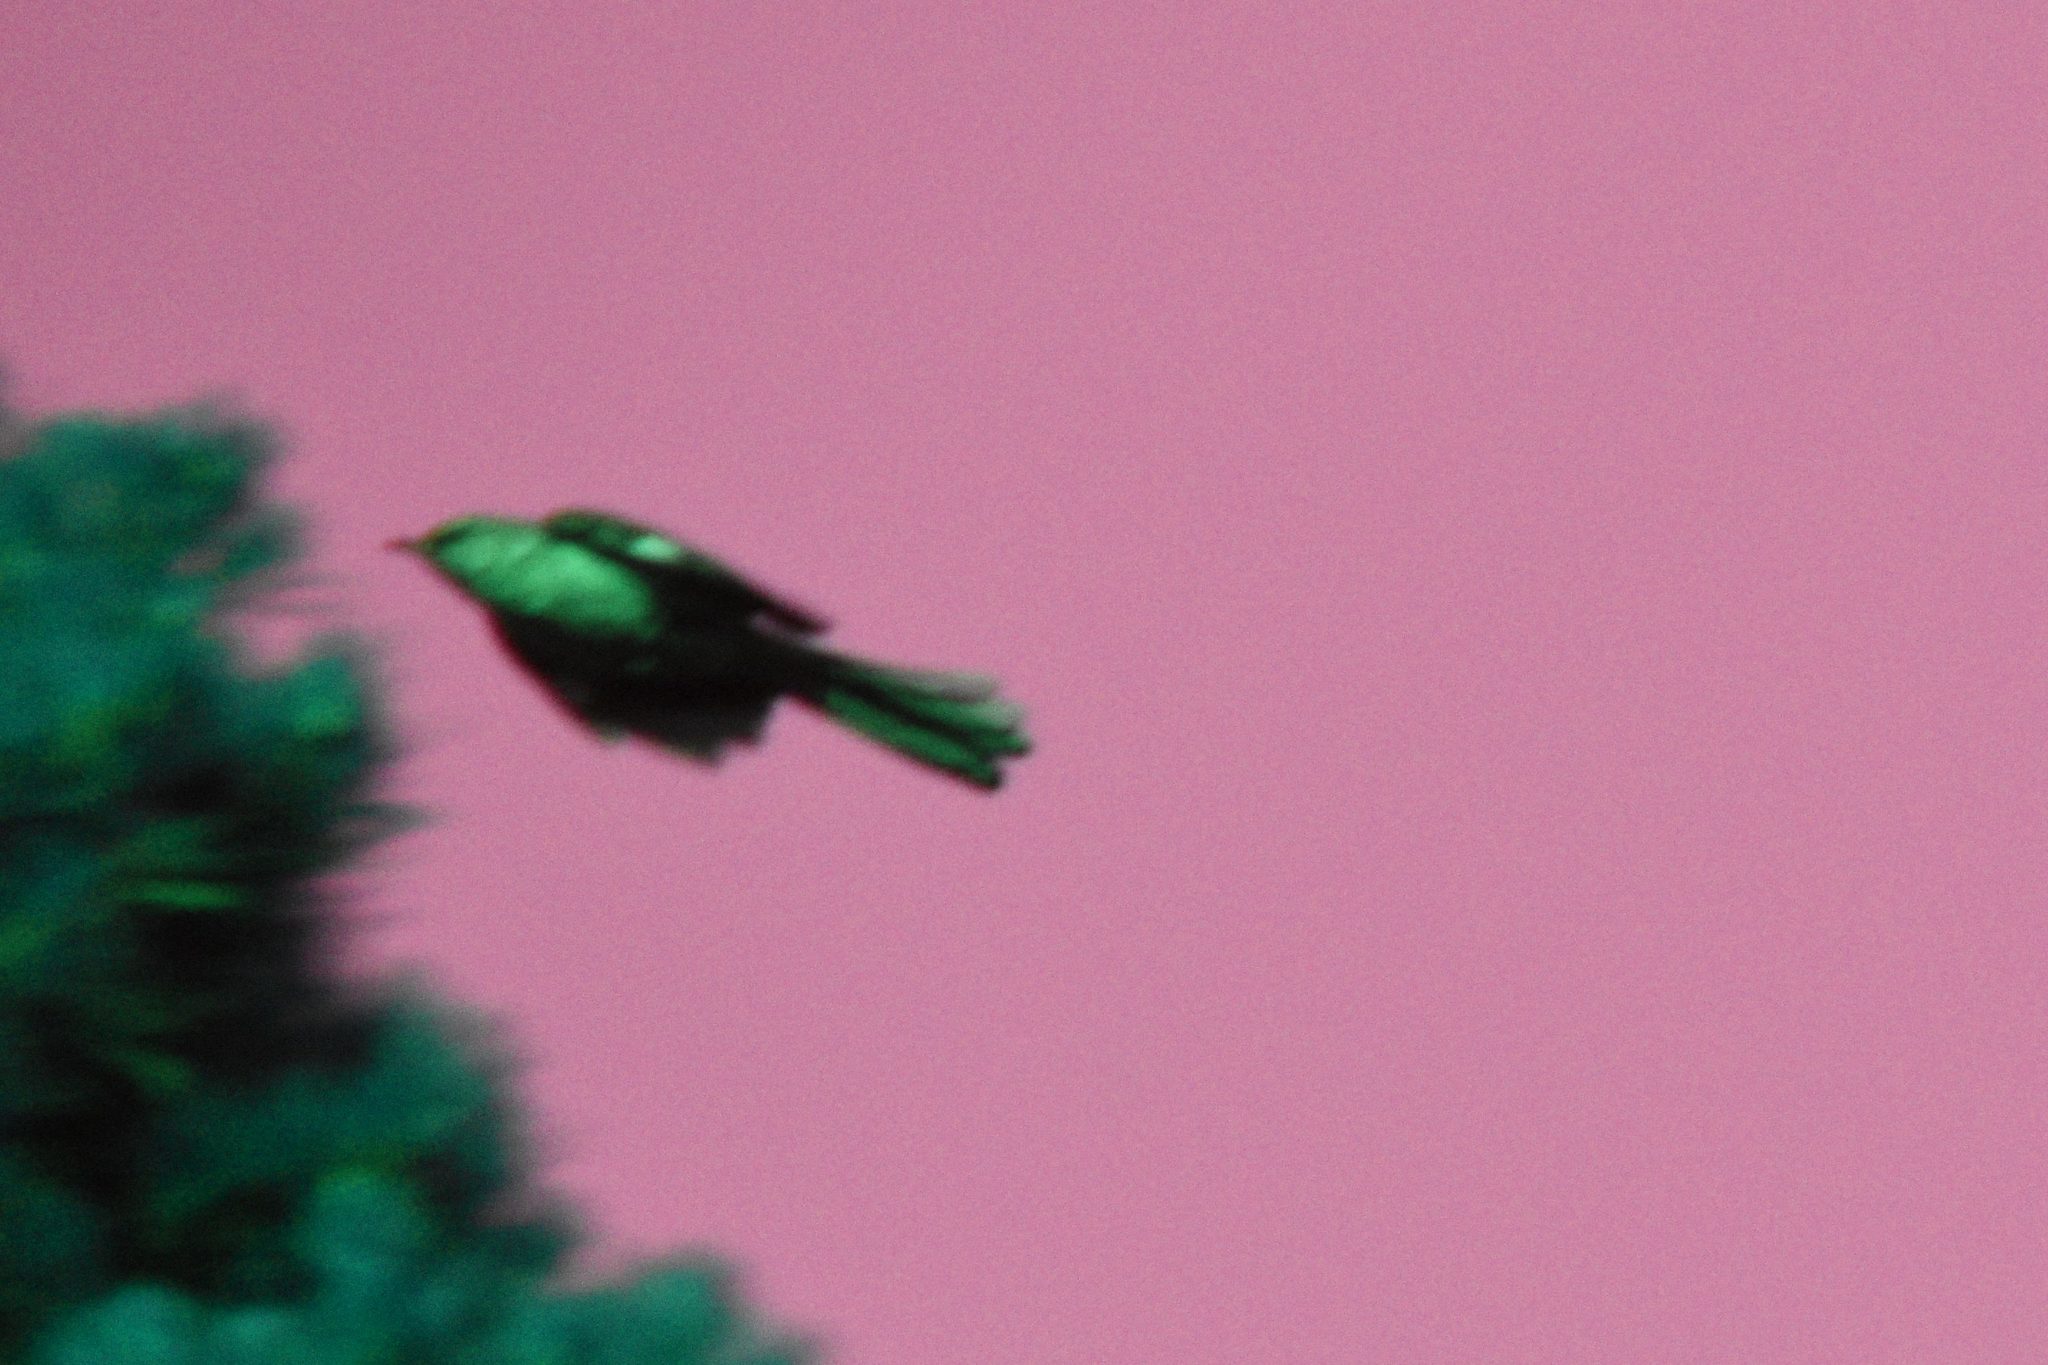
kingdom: Animalia
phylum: Chordata
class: Aves
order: Passeriformes
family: Mimidae
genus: Mimus
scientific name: Mimus polyglottos
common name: Northern mockingbird
